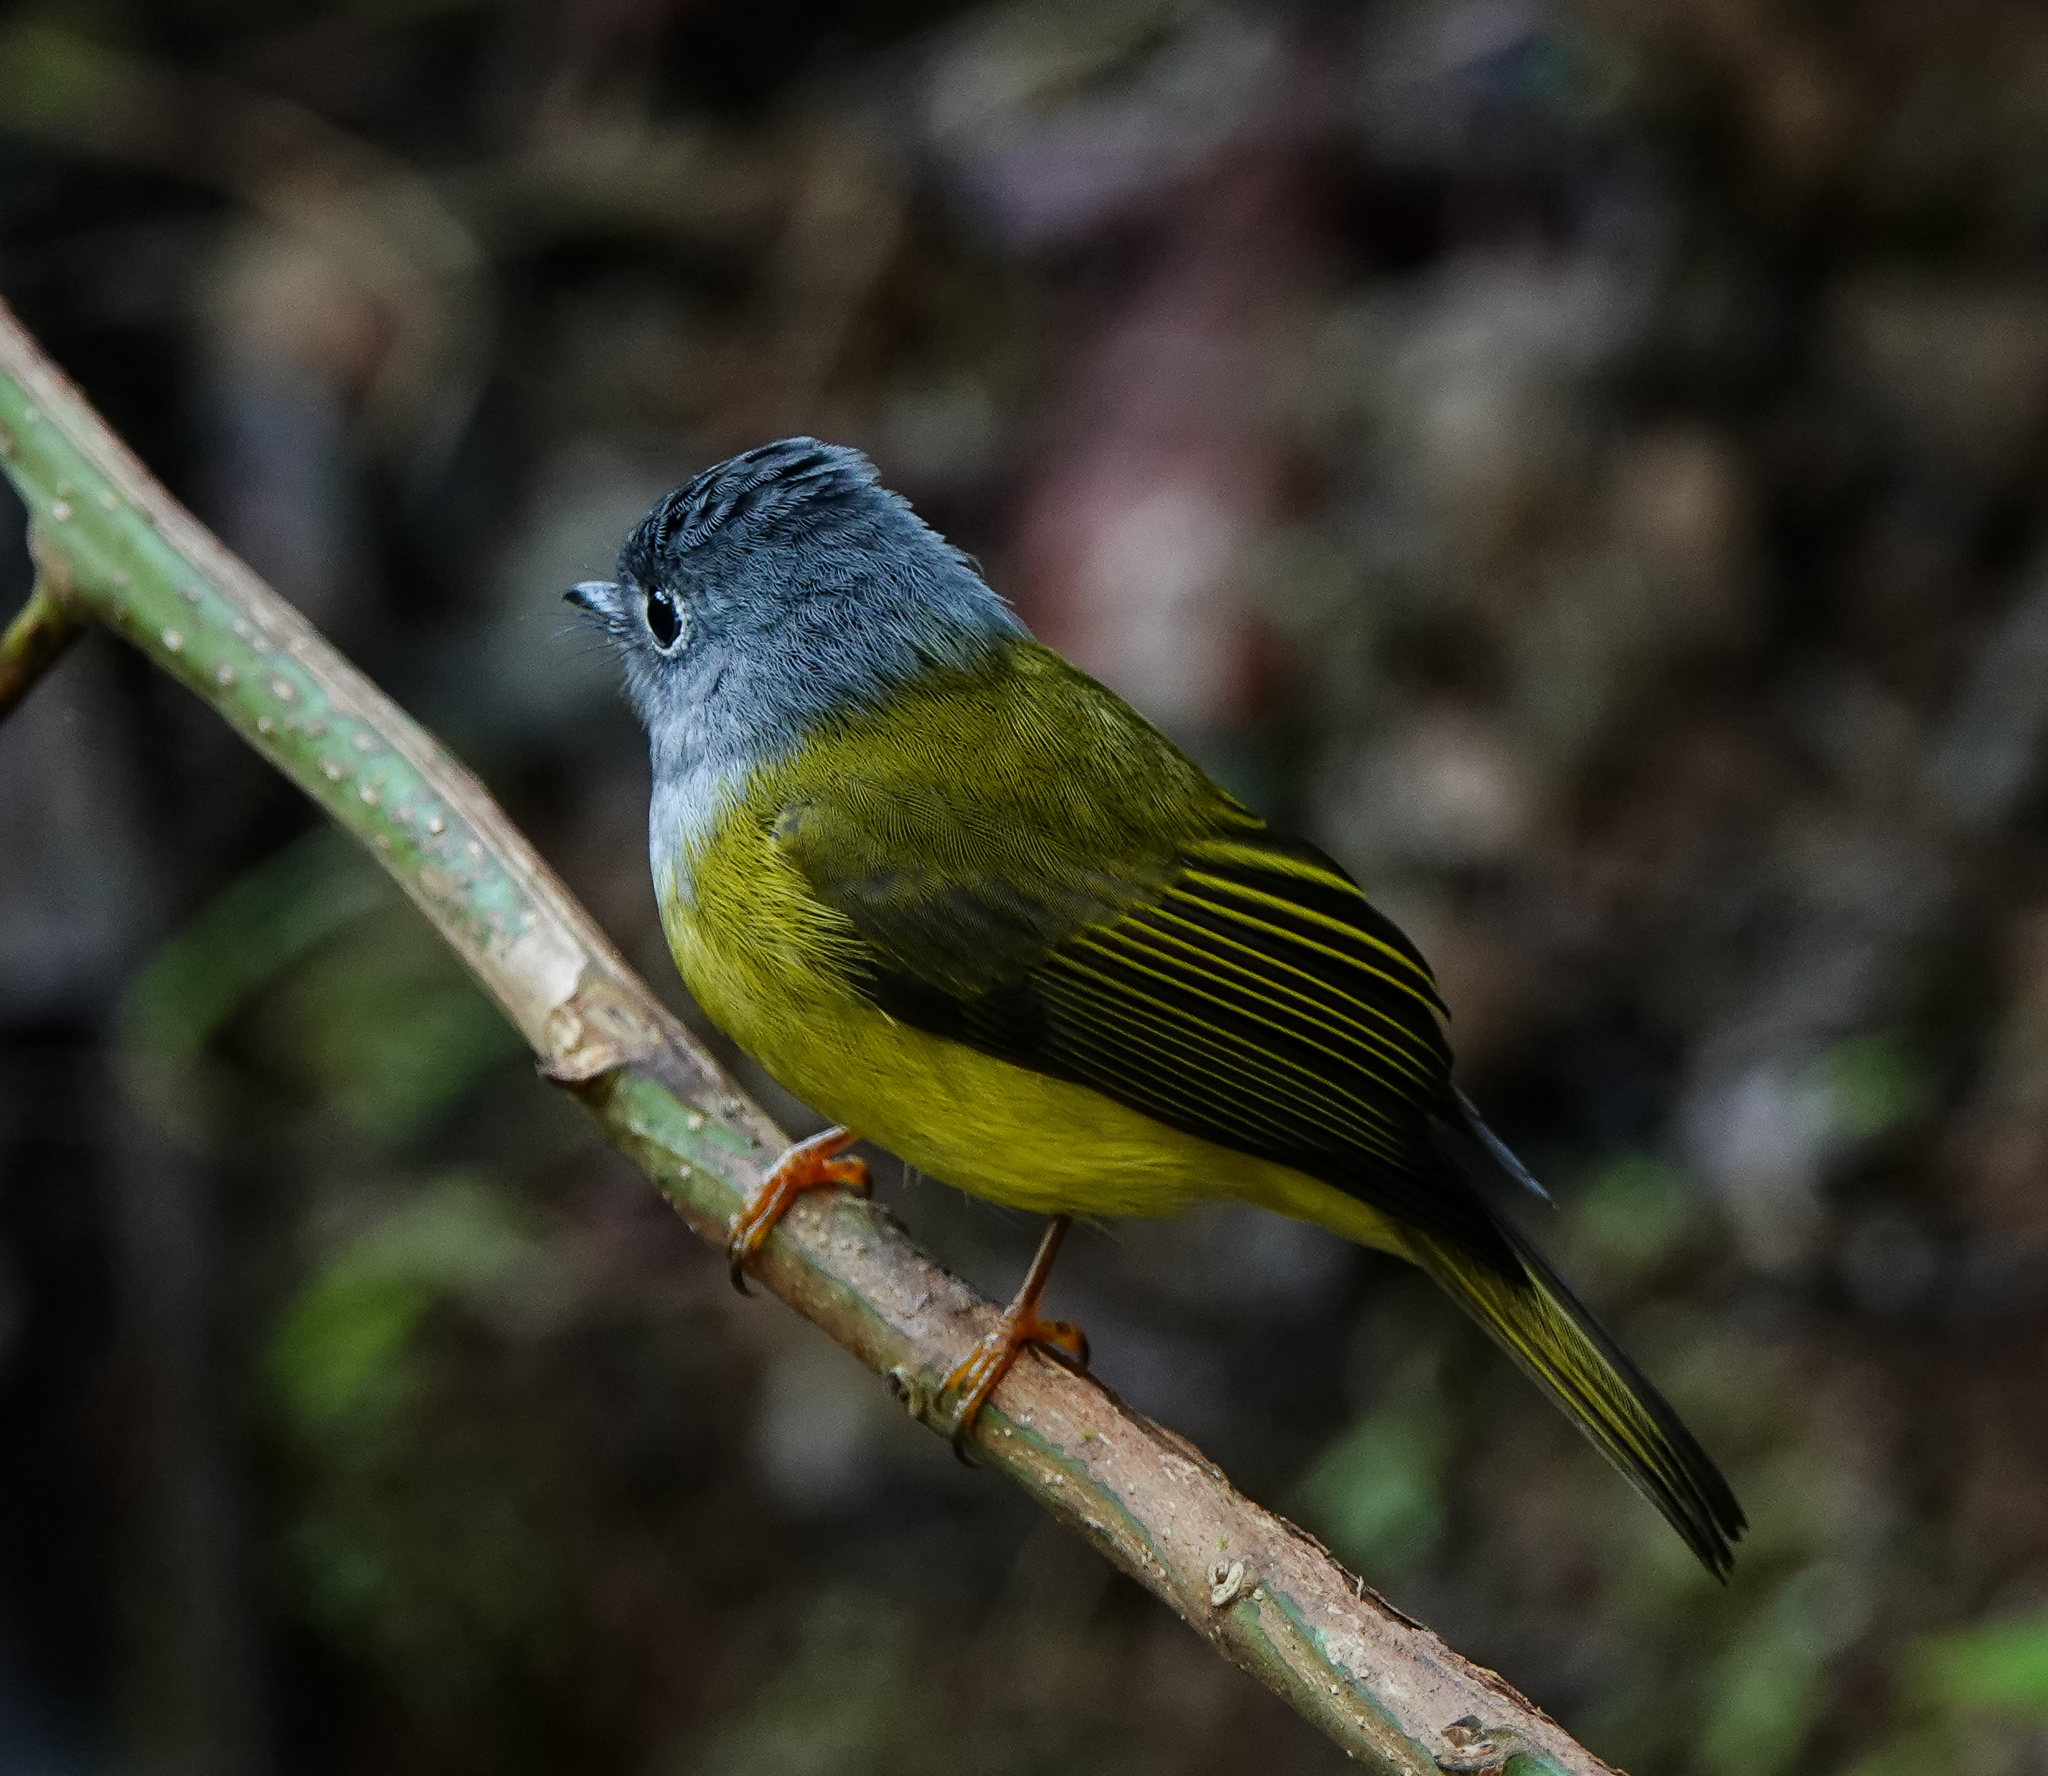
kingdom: Animalia
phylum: Chordata
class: Aves
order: Passeriformes
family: Stenostiridae
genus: Culicicapa
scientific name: Culicicapa ceylonensis
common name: Grey-headed canary-flycatcher
